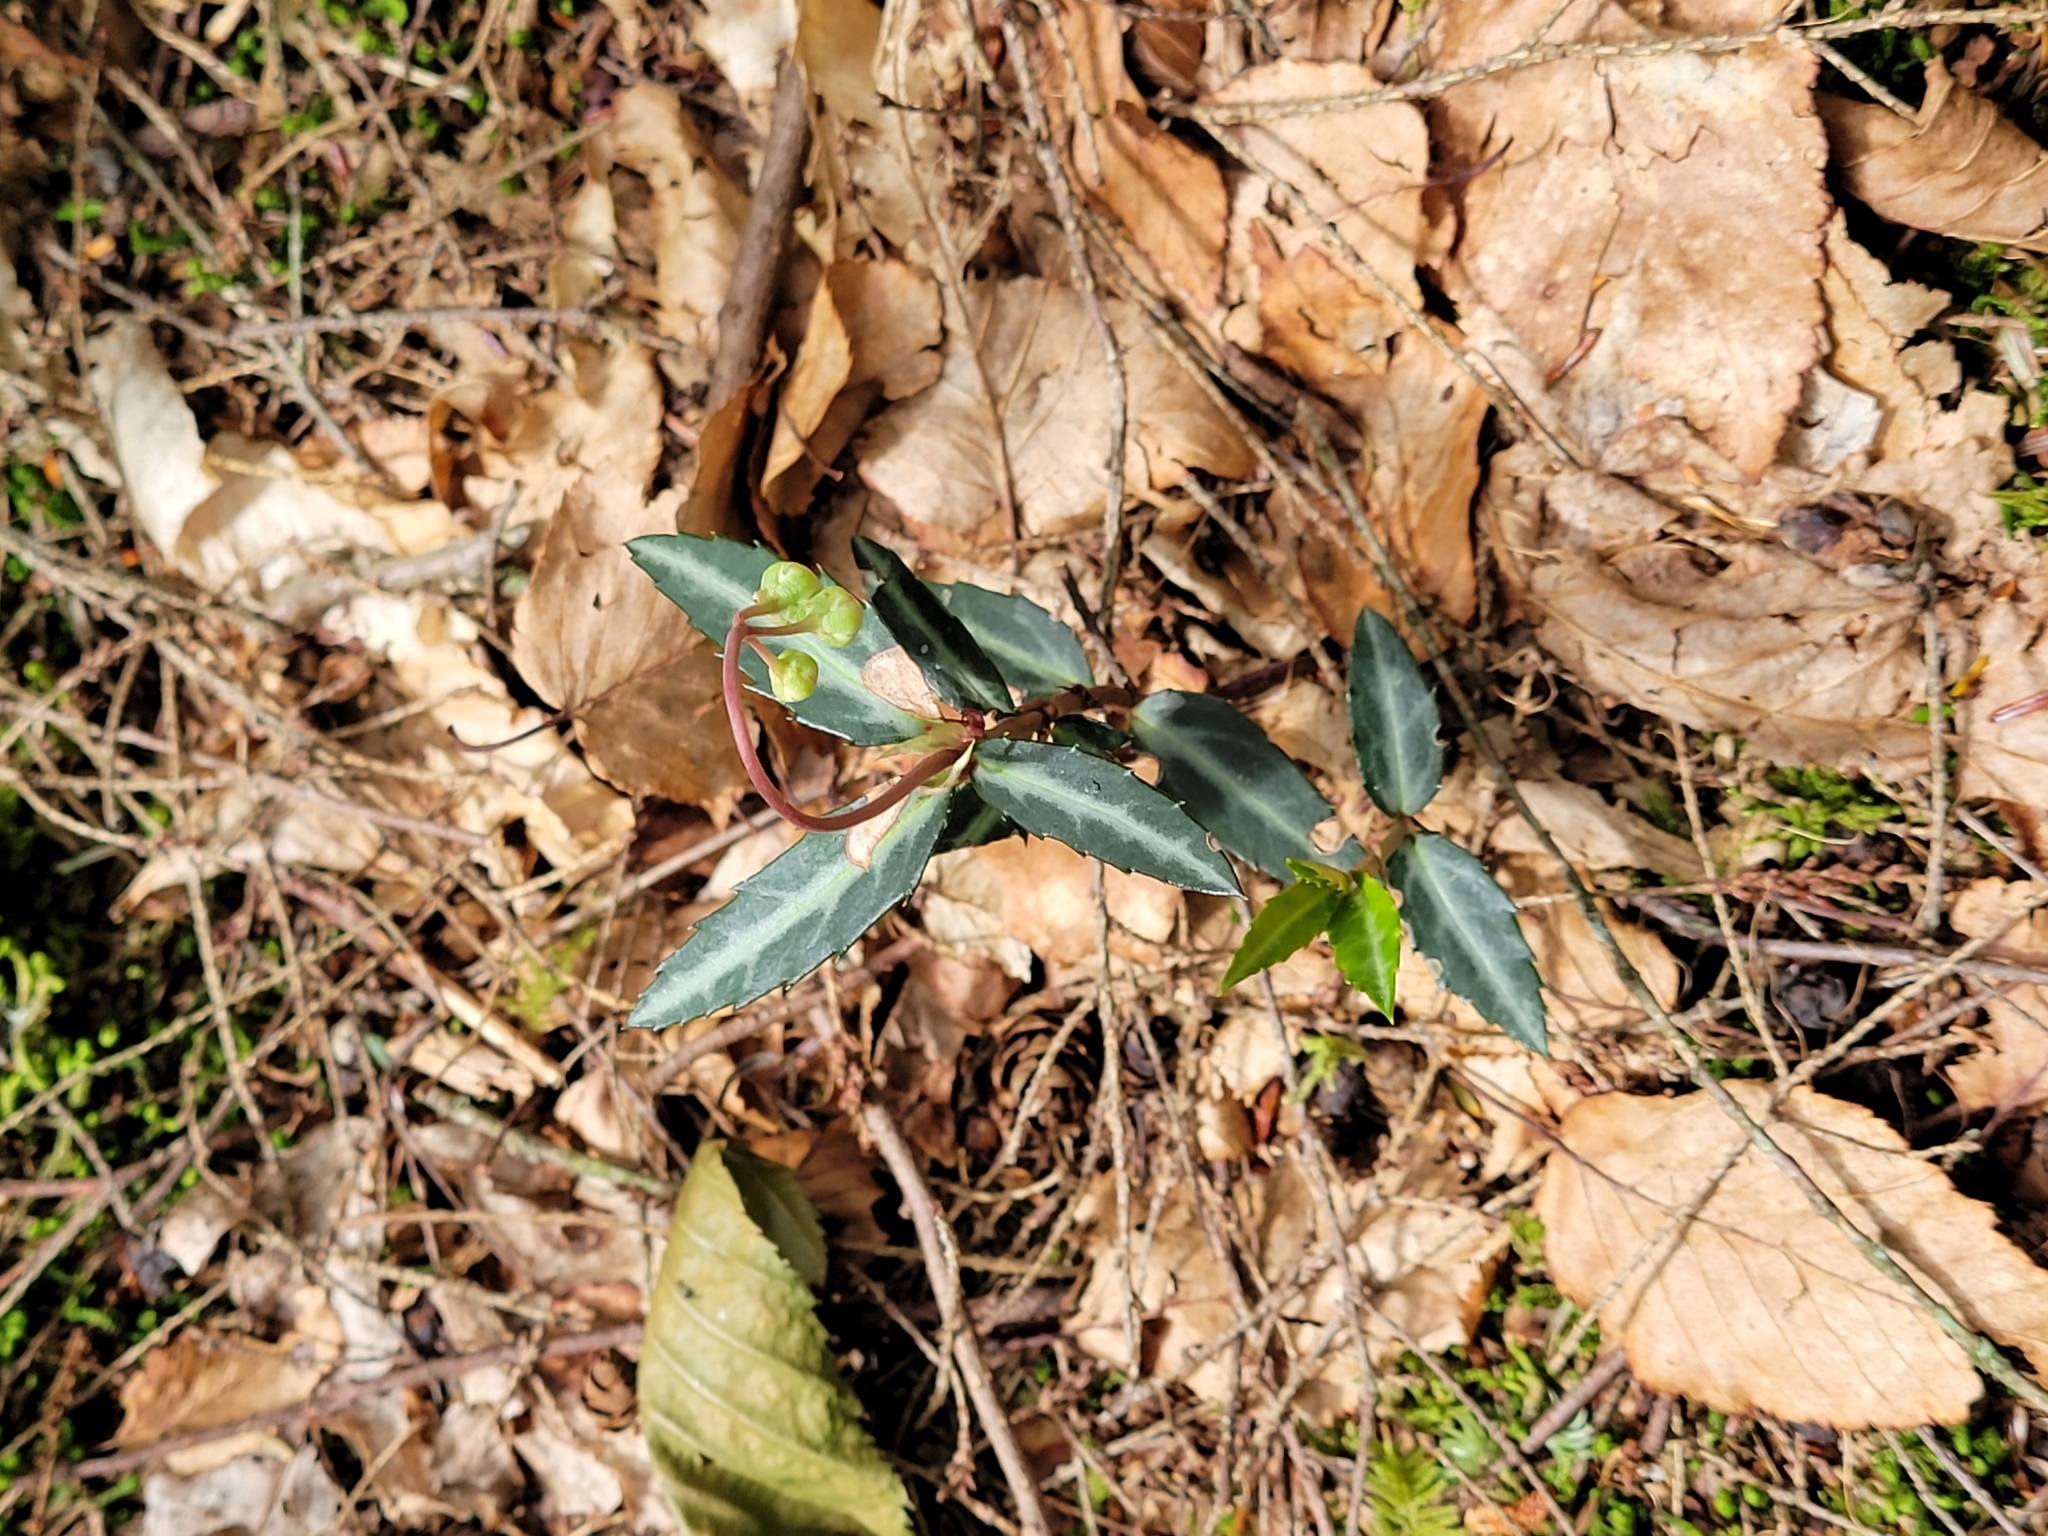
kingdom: Plantae
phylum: Tracheophyta
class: Magnoliopsida
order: Ericales
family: Ericaceae
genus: Chimaphila
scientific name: Chimaphila maculata
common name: Spotted pipsissewa
